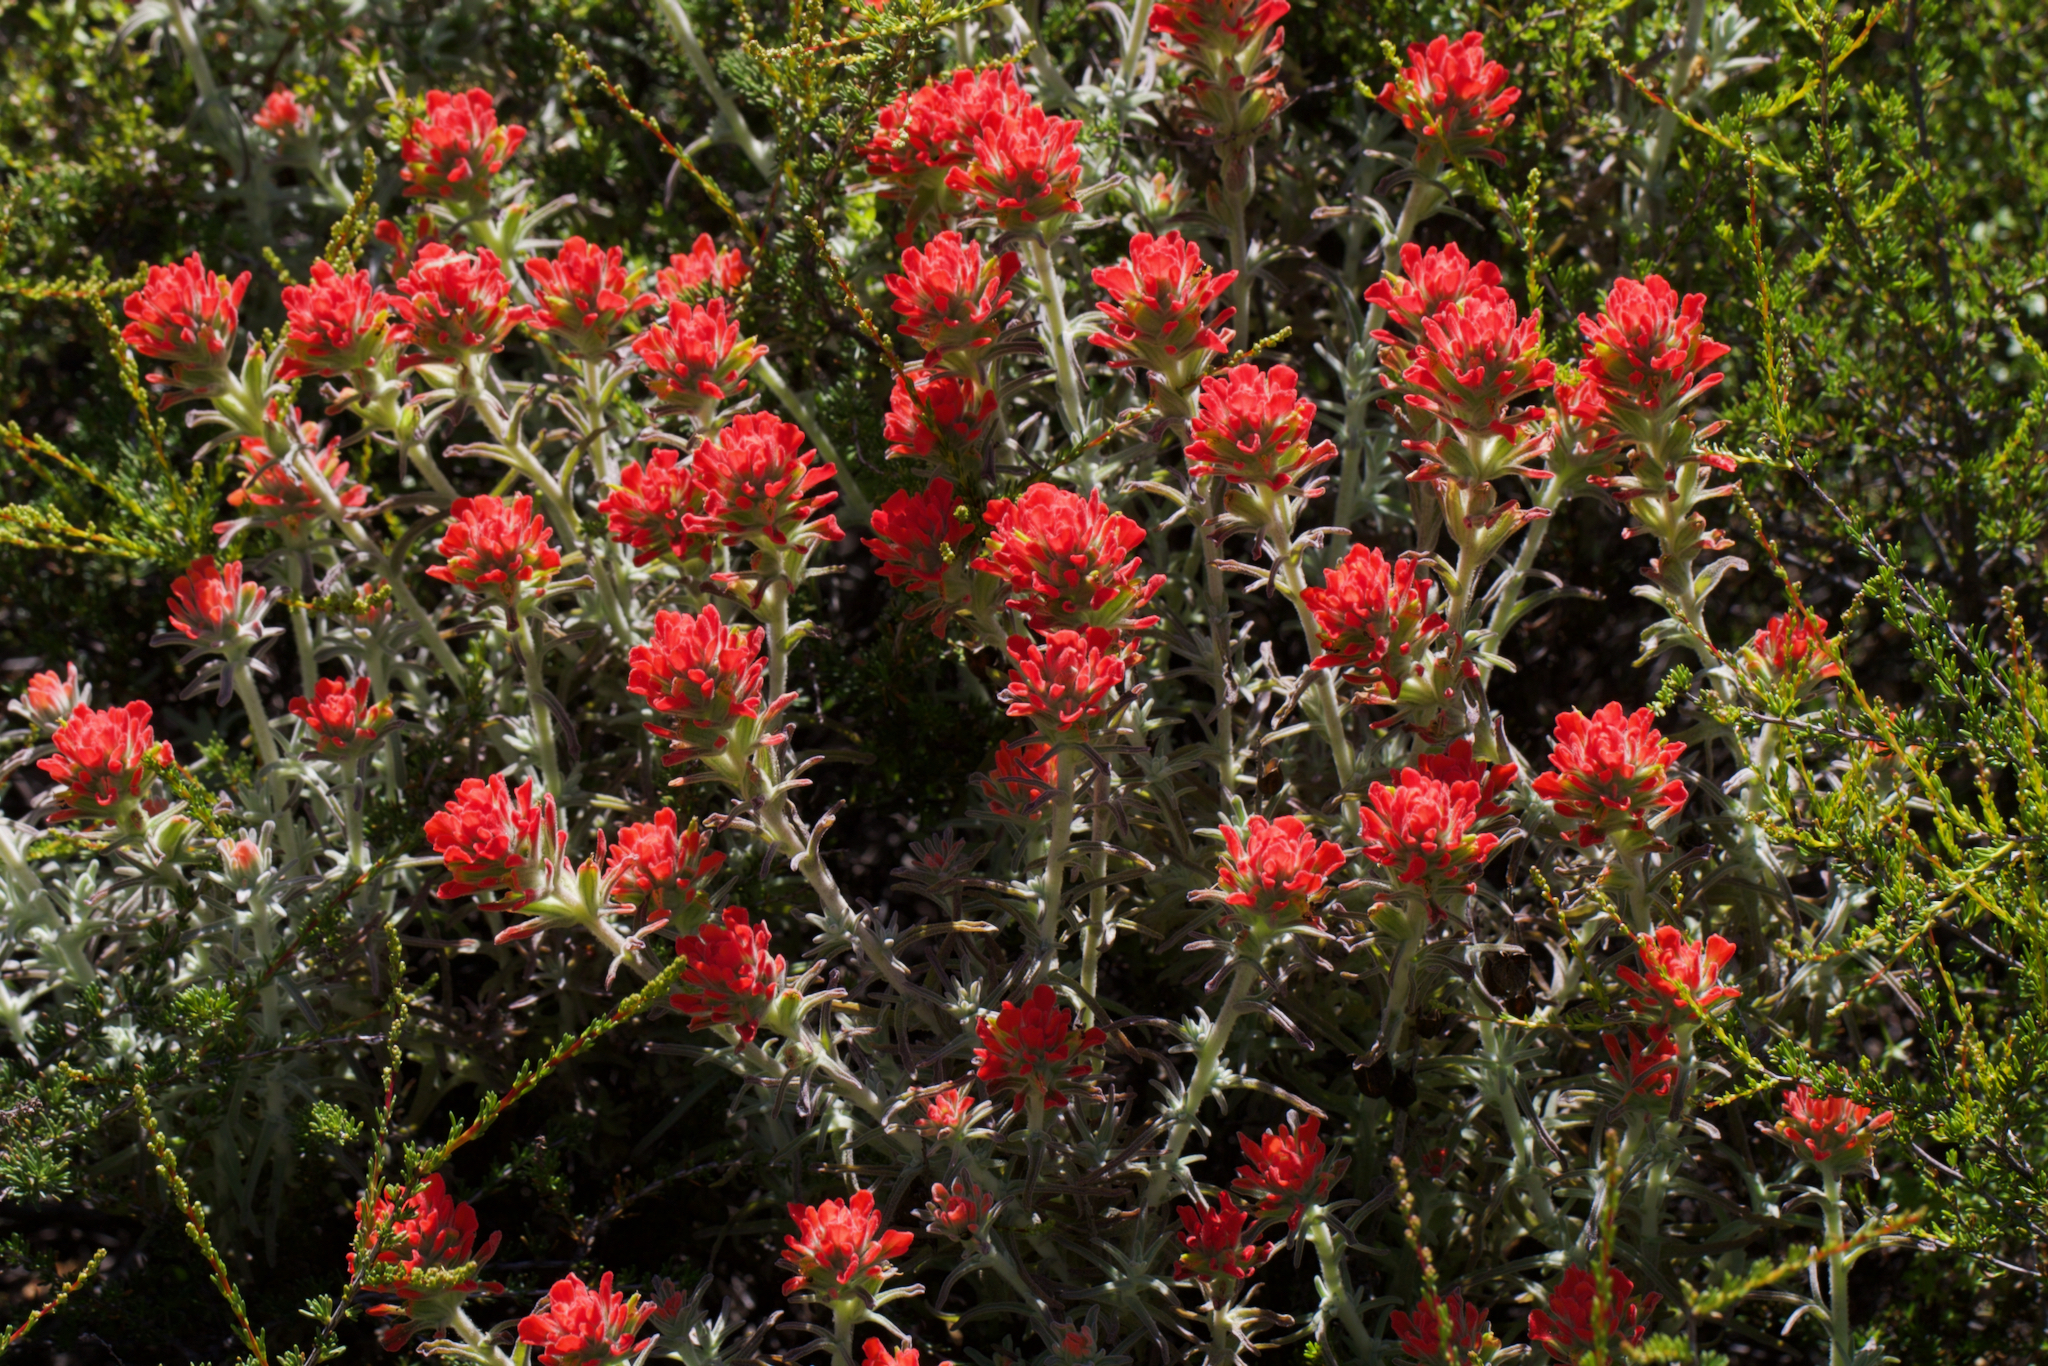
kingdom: Plantae
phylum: Tracheophyta
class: Magnoliopsida
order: Lamiales
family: Orobanchaceae
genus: Castilleja
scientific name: Castilleja foliolosa
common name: Woolly indian paintbrush
